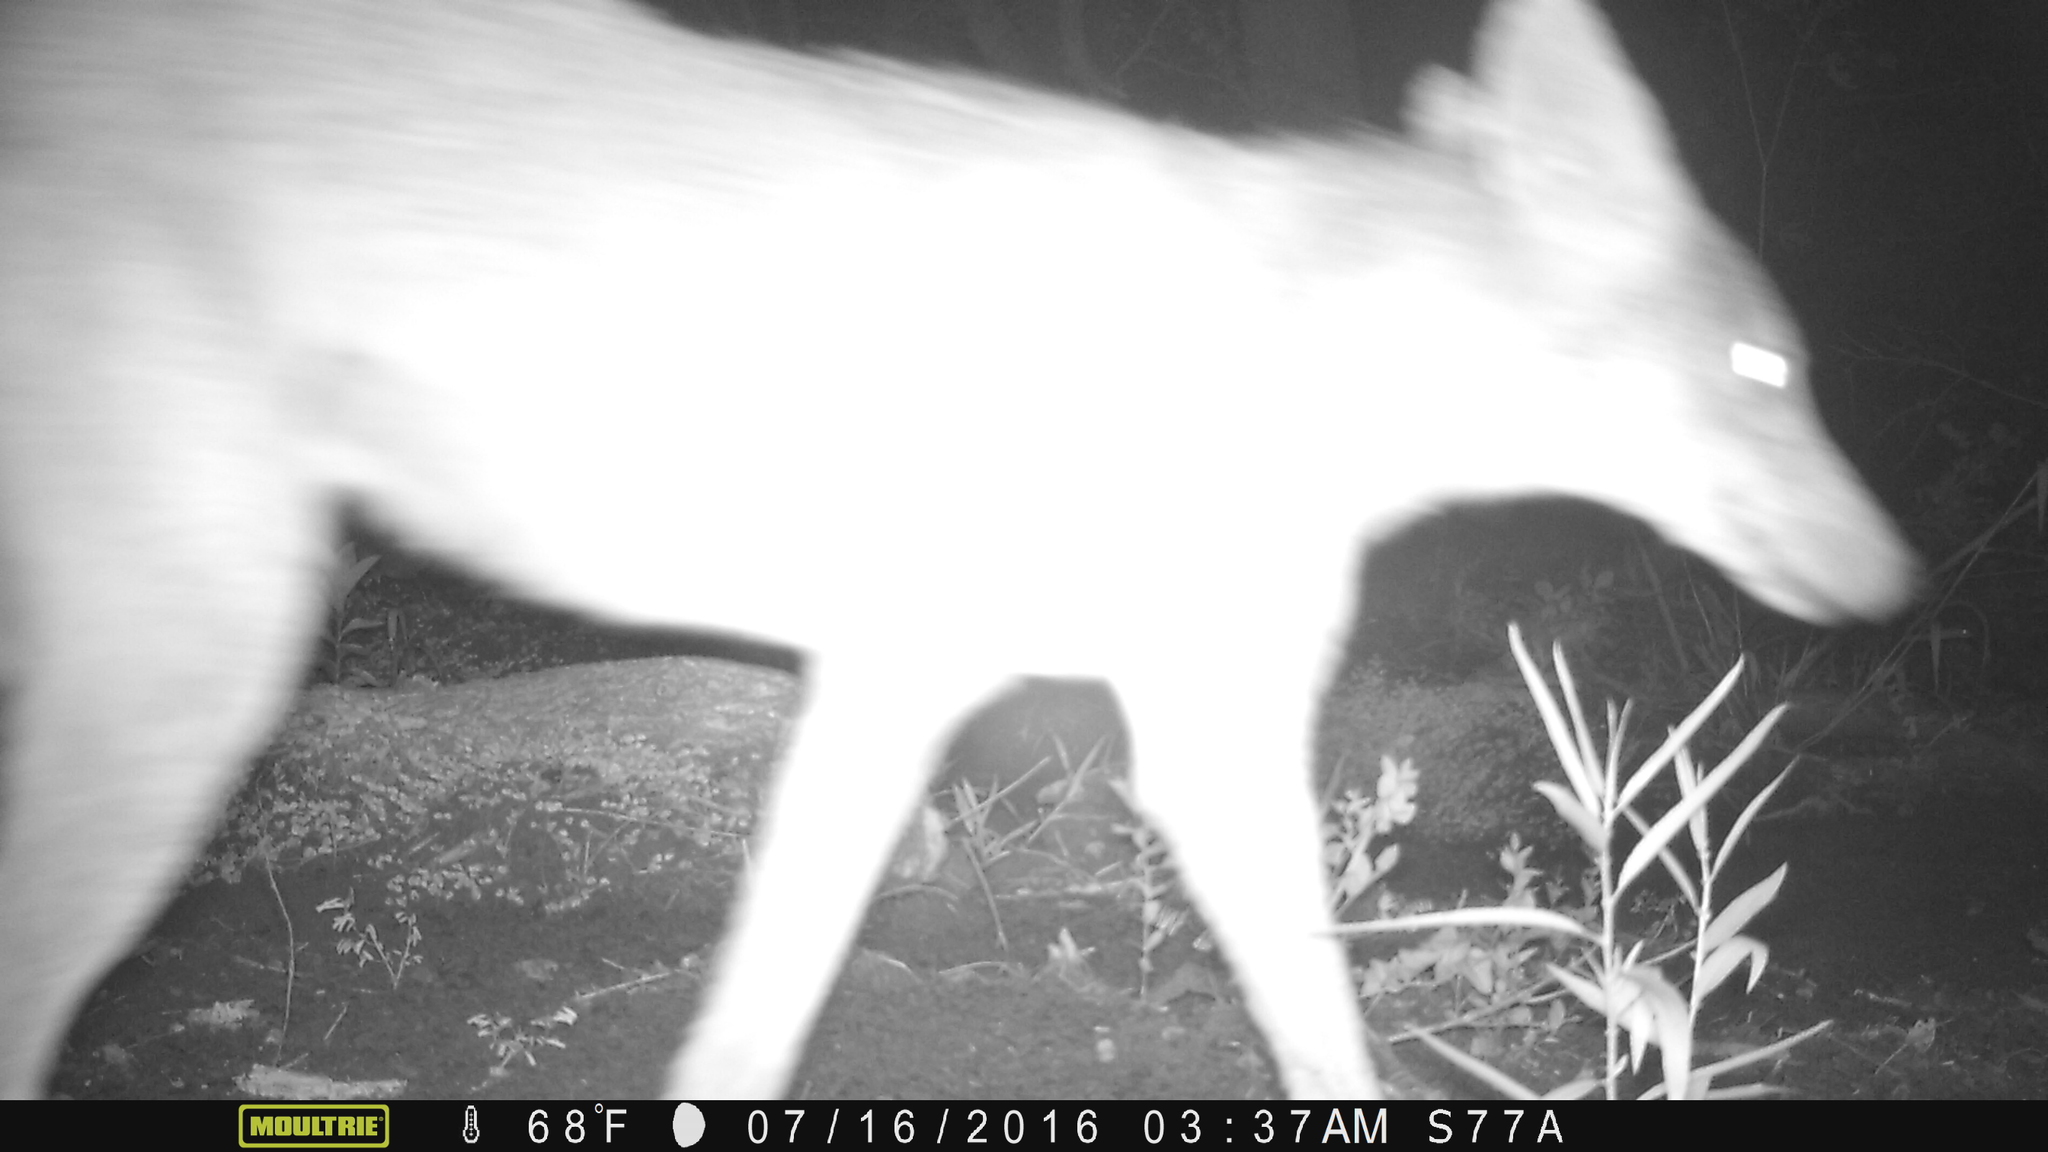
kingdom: Animalia
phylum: Chordata
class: Mammalia
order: Carnivora
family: Canidae
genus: Canis
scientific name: Canis latrans
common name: Coyote
